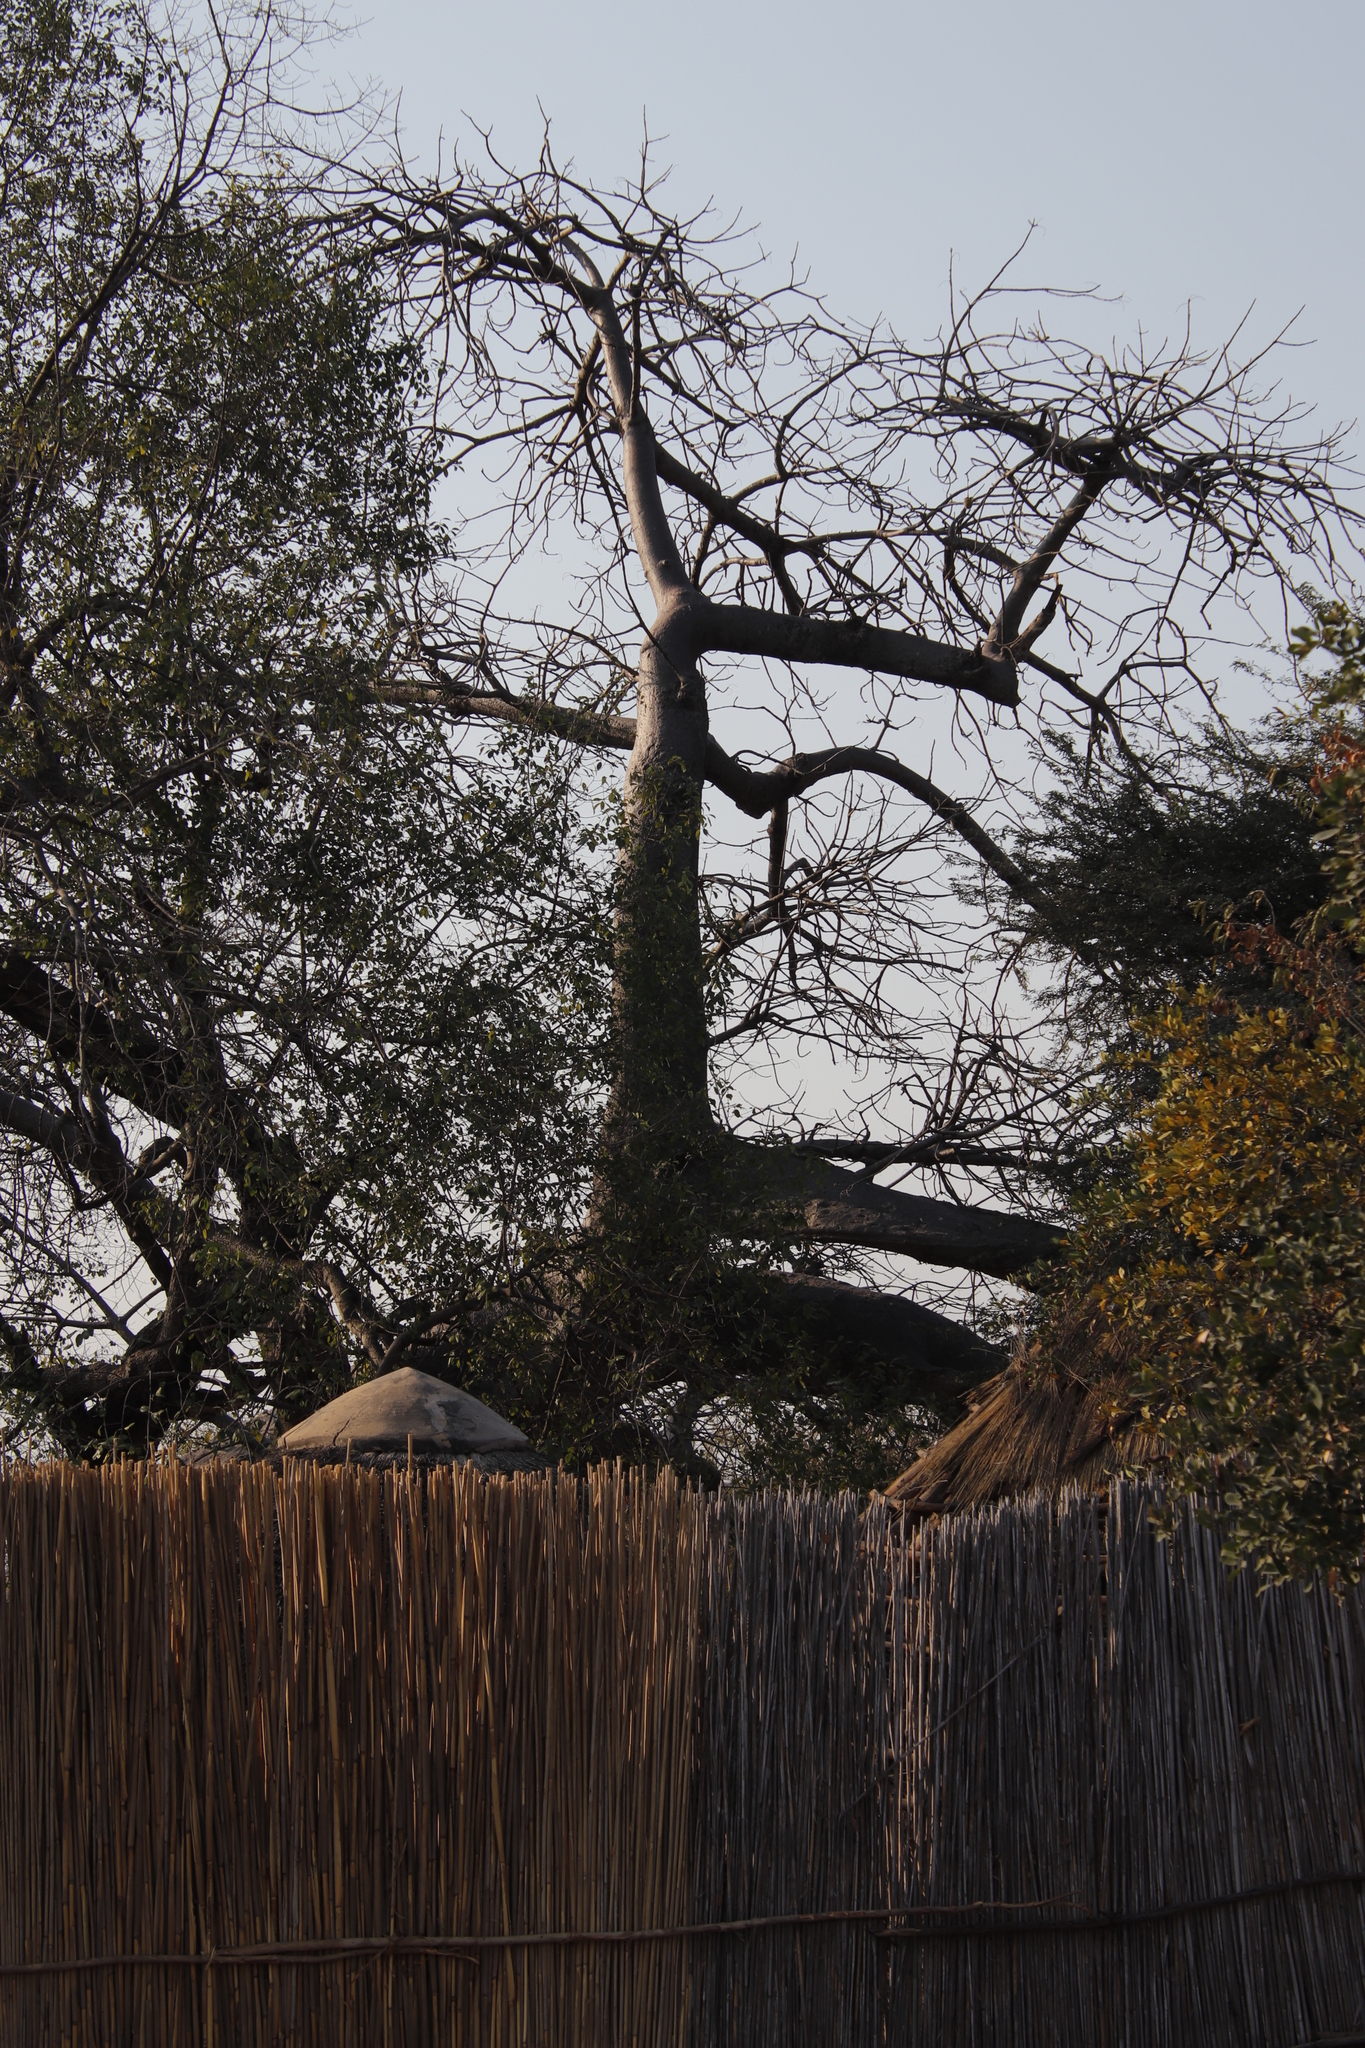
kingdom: Plantae
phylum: Tracheophyta
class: Magnoliopsida
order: Malvales
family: Malvaceae
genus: Adansonia
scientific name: Adansonia digitata
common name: Dead-rat-tree
